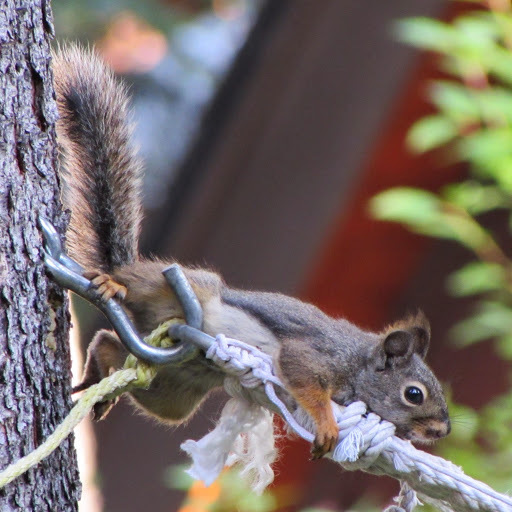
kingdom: Animalia
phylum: Chordata
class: Mammalia
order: Rodentia
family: Sciuridae
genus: Tamiasciurus
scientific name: Tamiasciurus douglasii
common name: Douglas's squirrel
